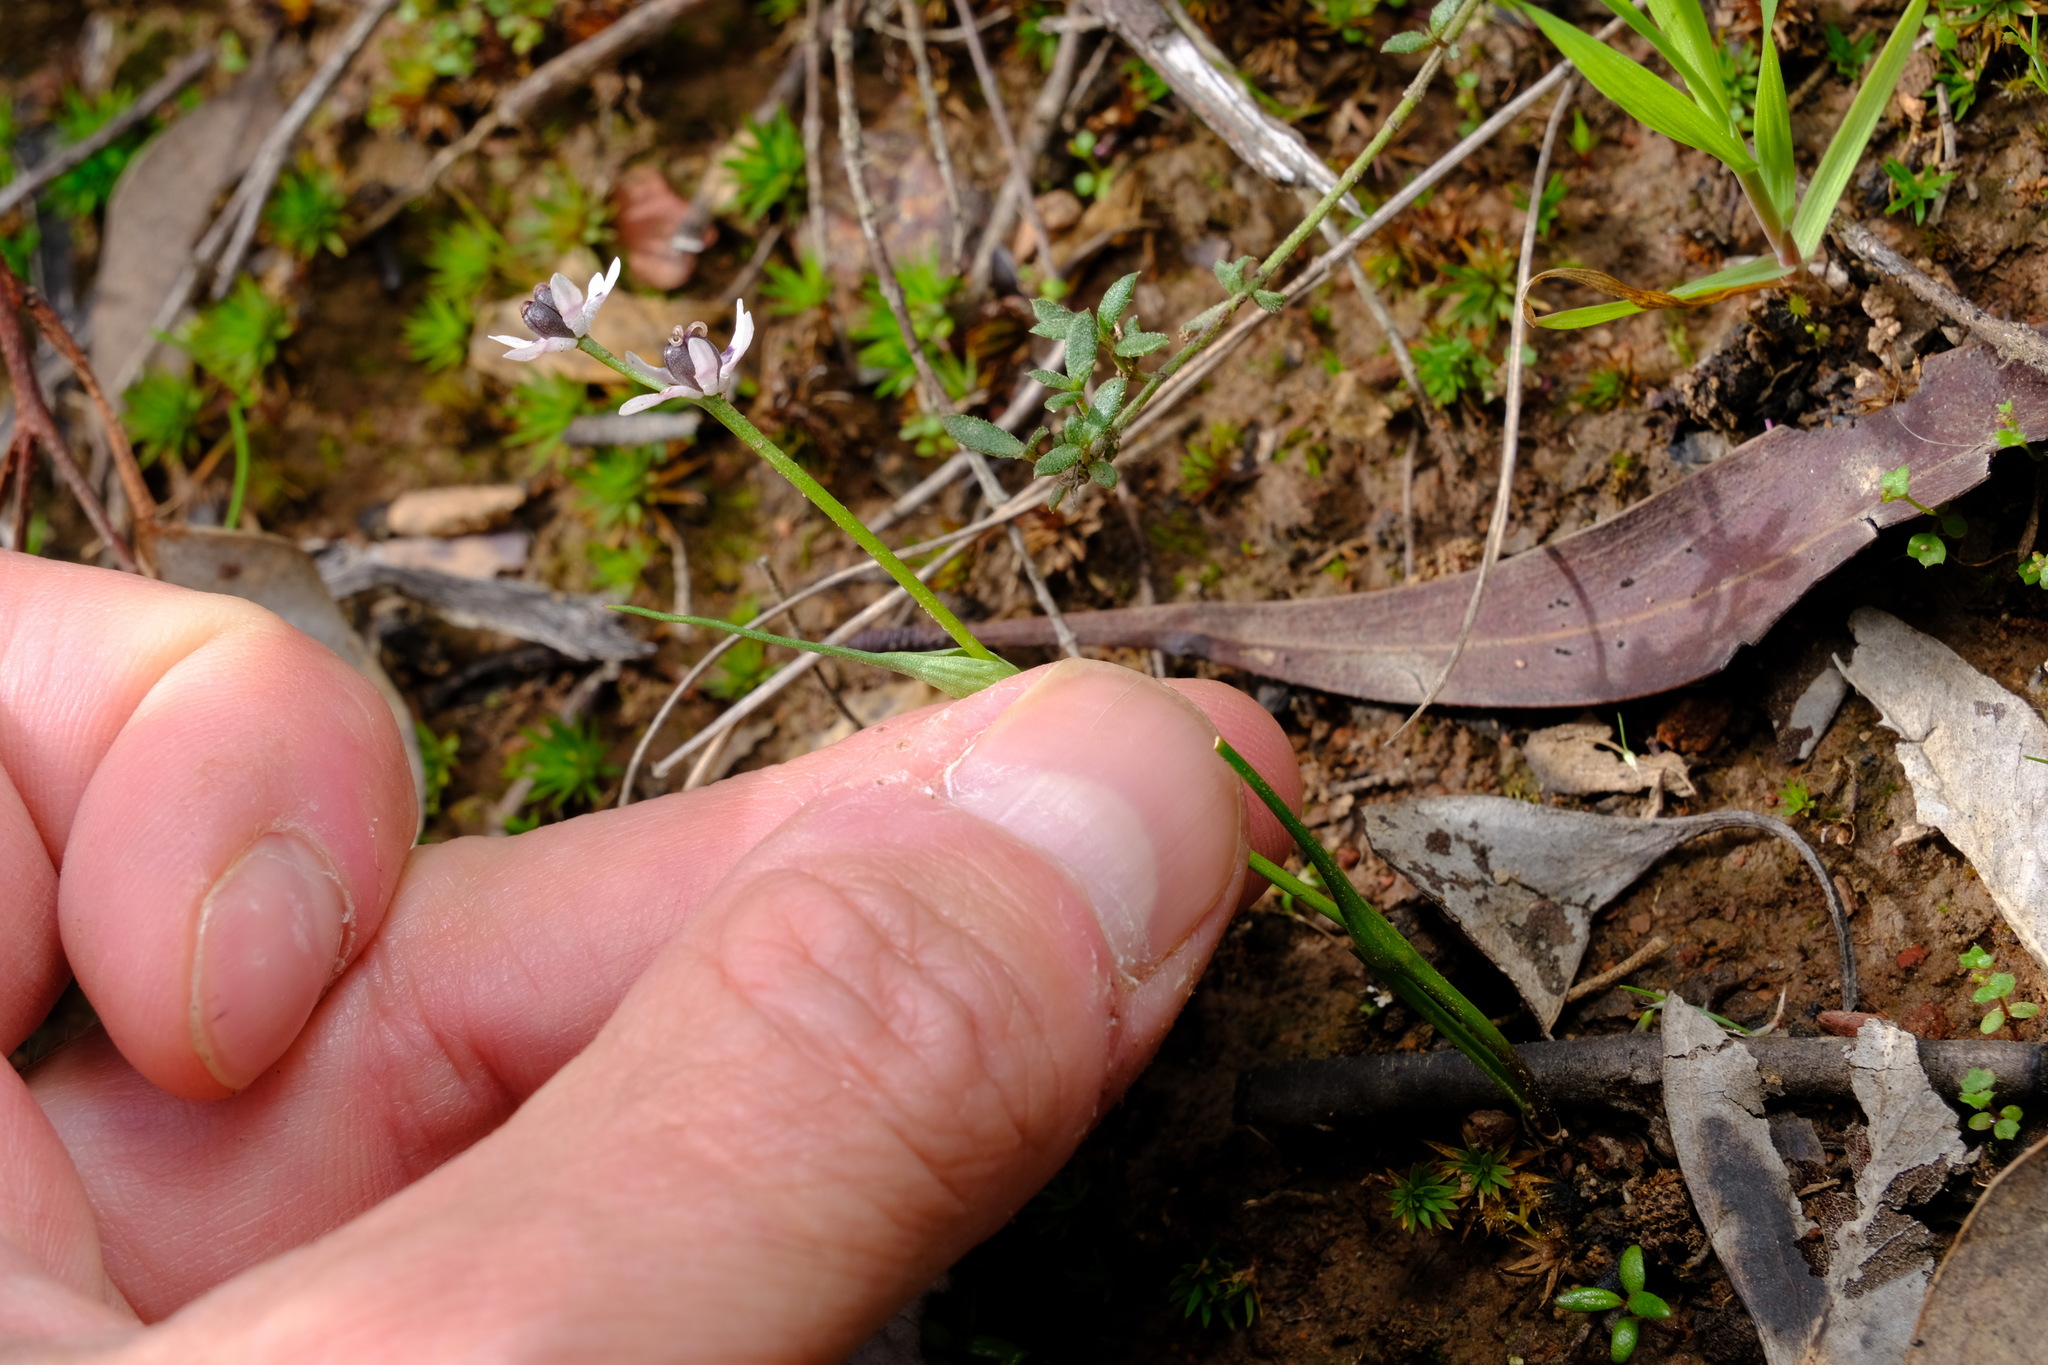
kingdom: Plantae
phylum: Tracheophyta
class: Liliopsida
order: Liliales
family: Colchicaceae
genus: Wurmbea
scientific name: Wurmbea dioica
